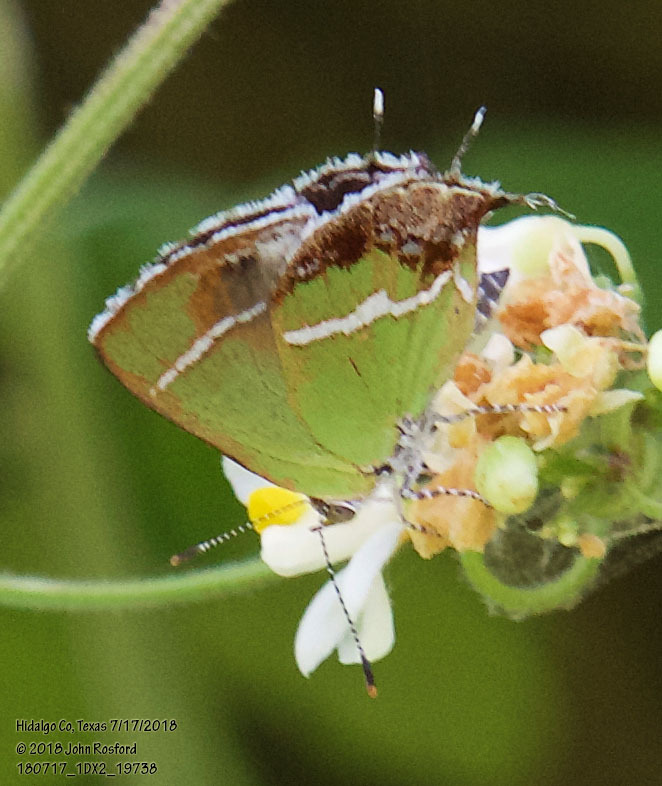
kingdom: Animalia
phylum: Arthropoda
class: Insecta
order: Lepidoptera
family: Lycaenidae
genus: Chlorostrymon
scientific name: Chlorostrymon simaethis
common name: Silver-banded hairstreak
